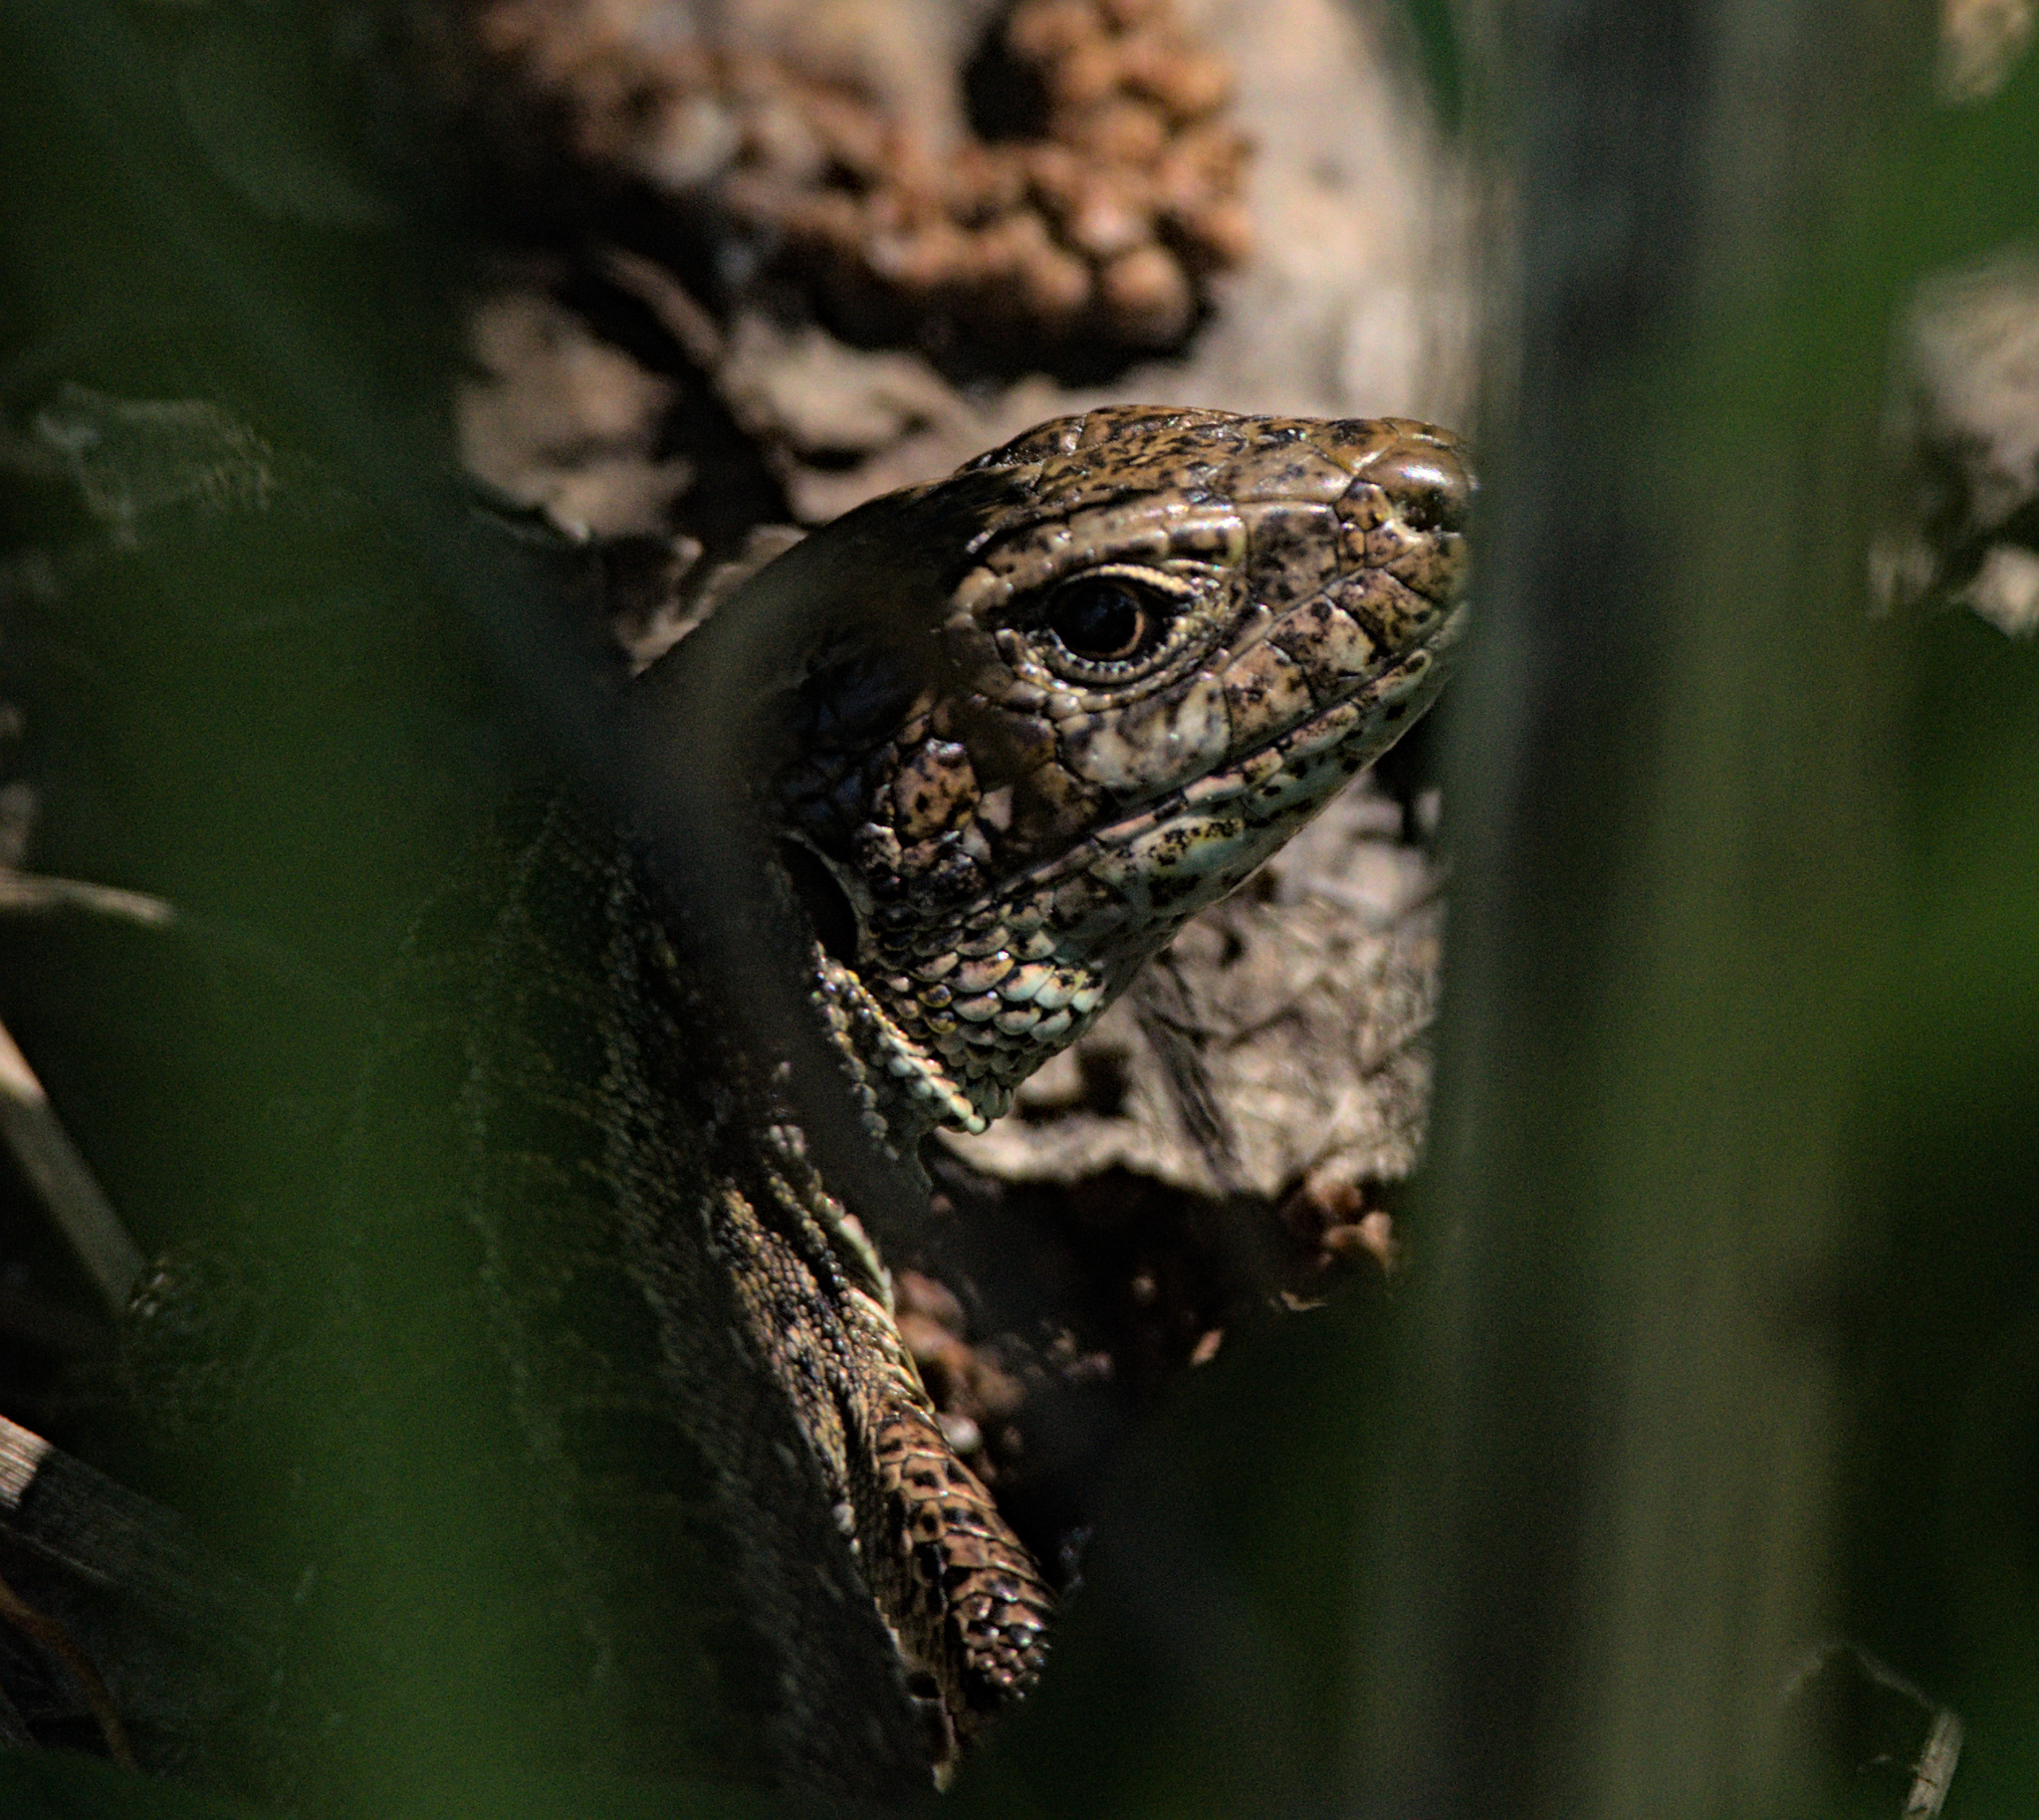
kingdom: Animalia
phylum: Chordata
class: Squamata
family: Lacertidae
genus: Lacerta
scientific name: Lacerta agilis
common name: Sand lizard
